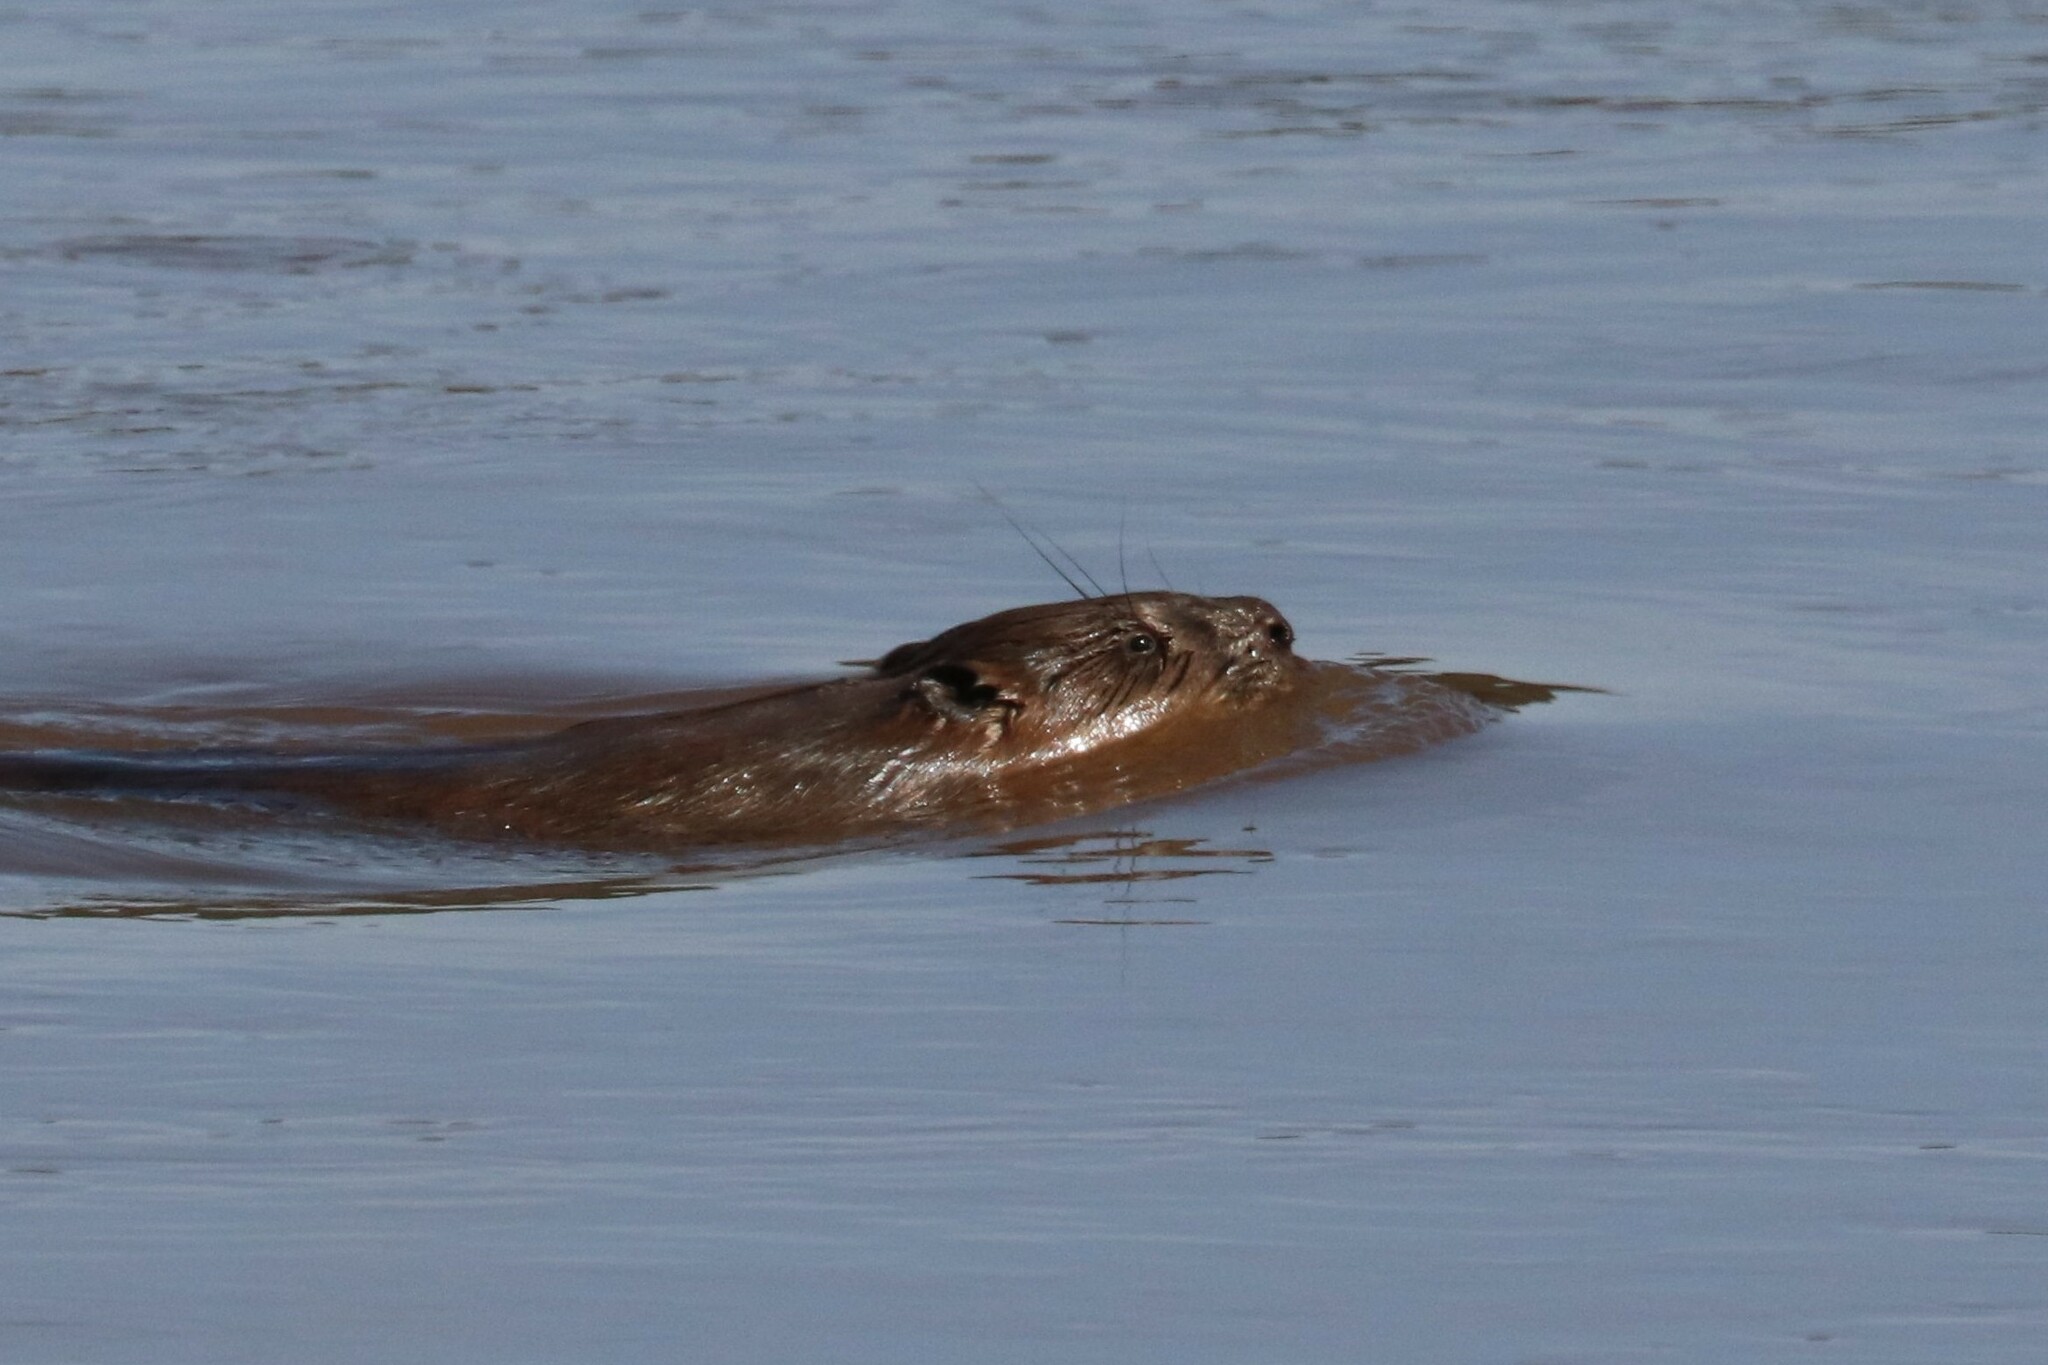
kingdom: Animalia
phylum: Chordata
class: Mammalia
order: Rodentia
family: Castoridae
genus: Castor
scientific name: Castor fiber
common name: Eurasian beaver
